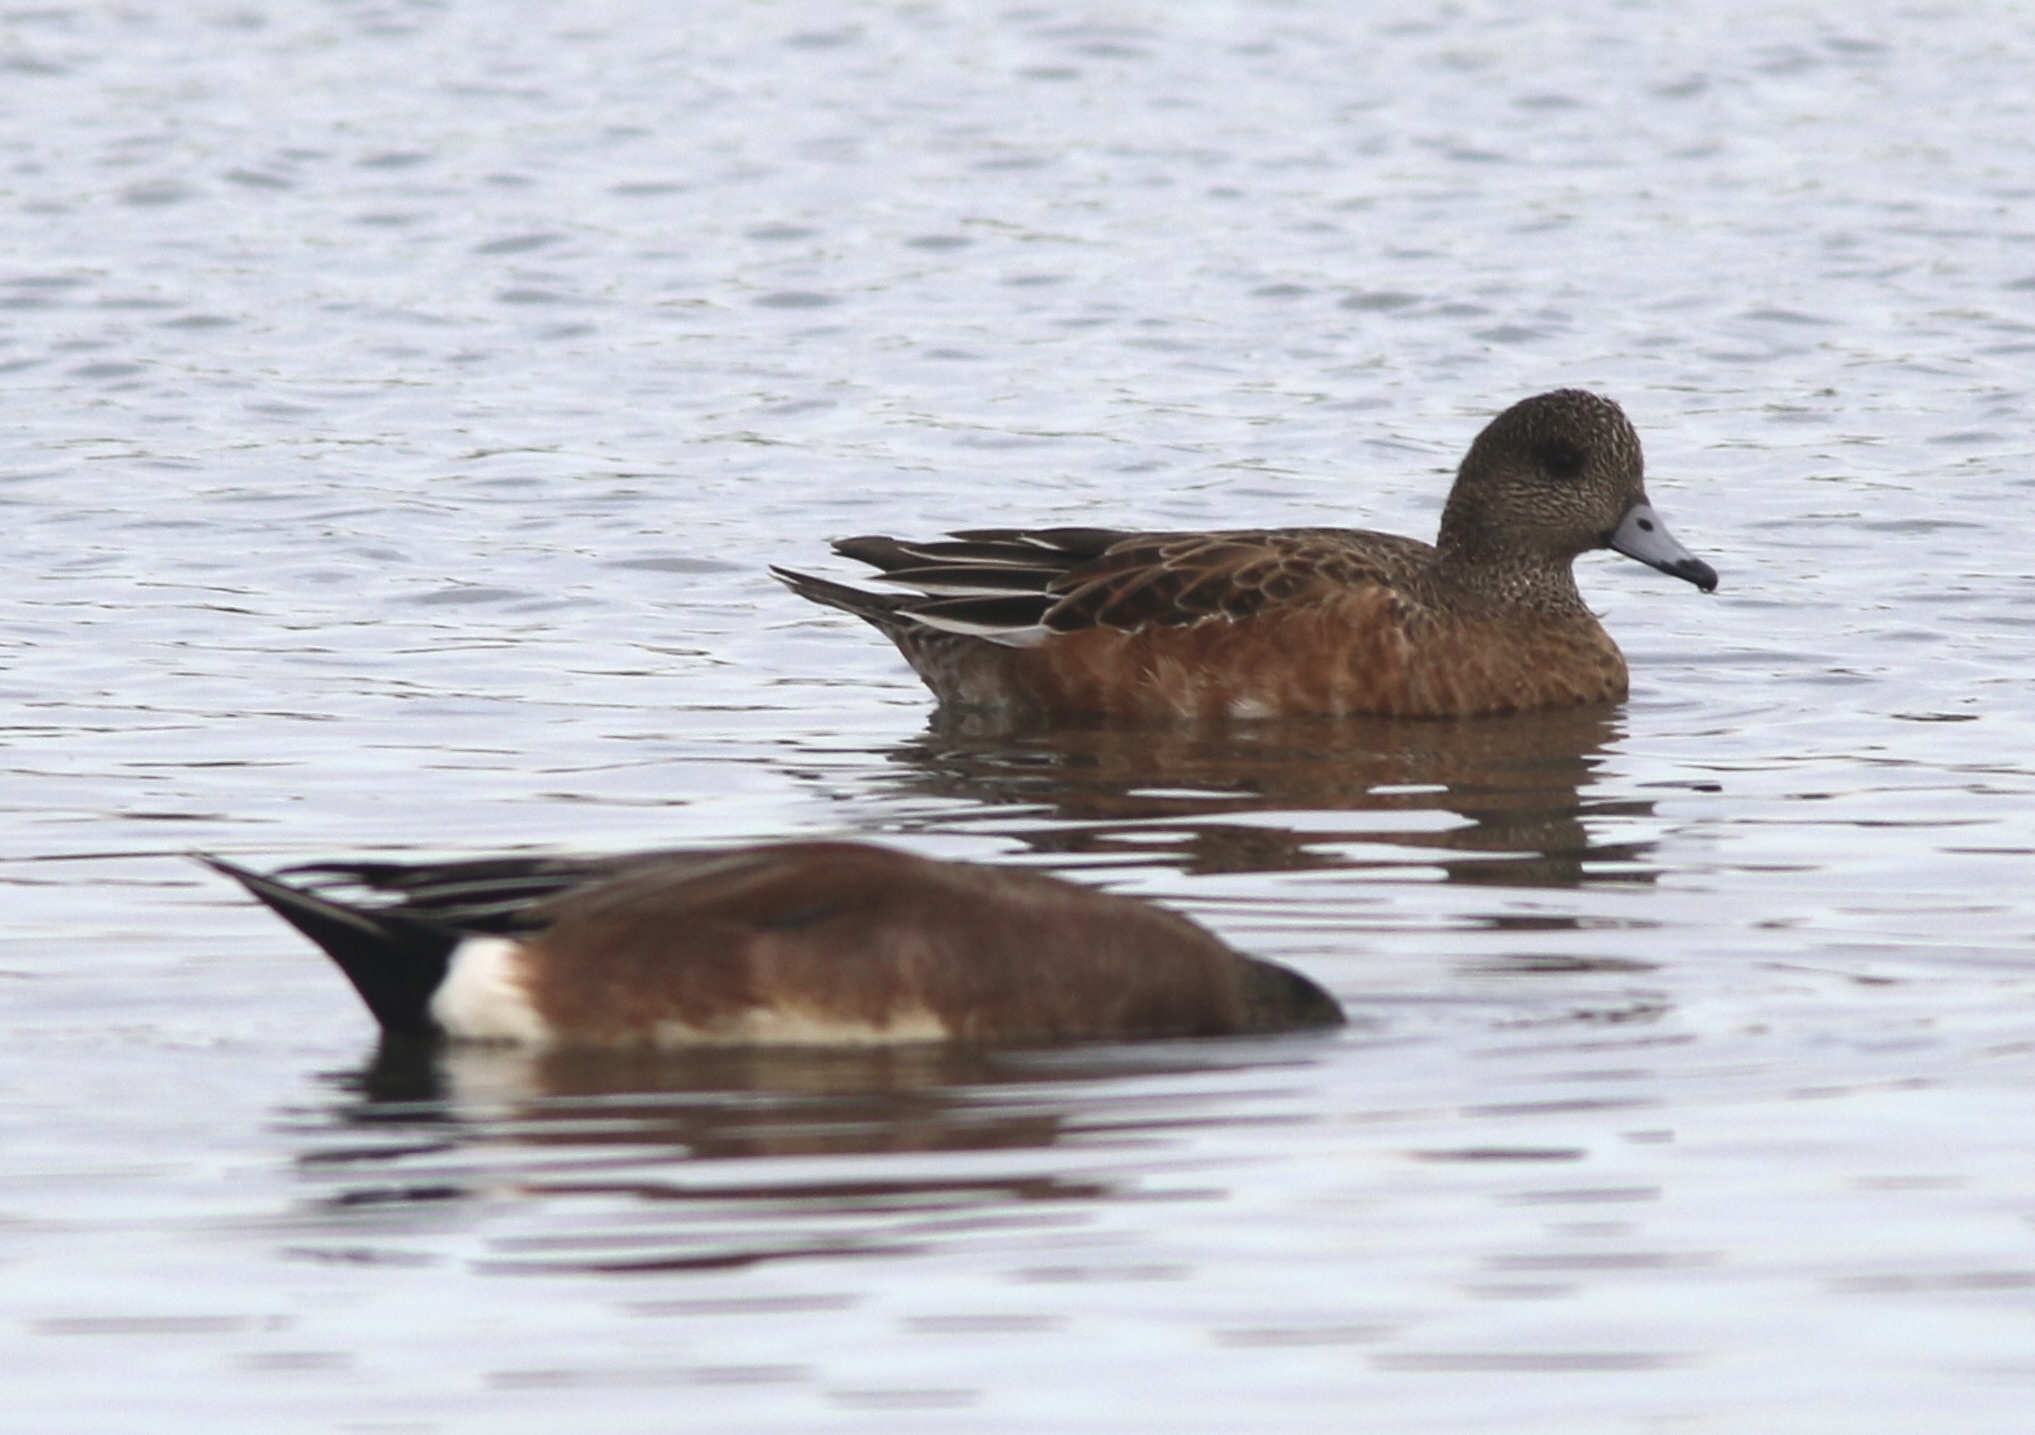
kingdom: Animalia
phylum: Chordata
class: Aves
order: Anseriformes
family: Anatidae
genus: Mareca
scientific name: Mareca americana
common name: American wigeon
